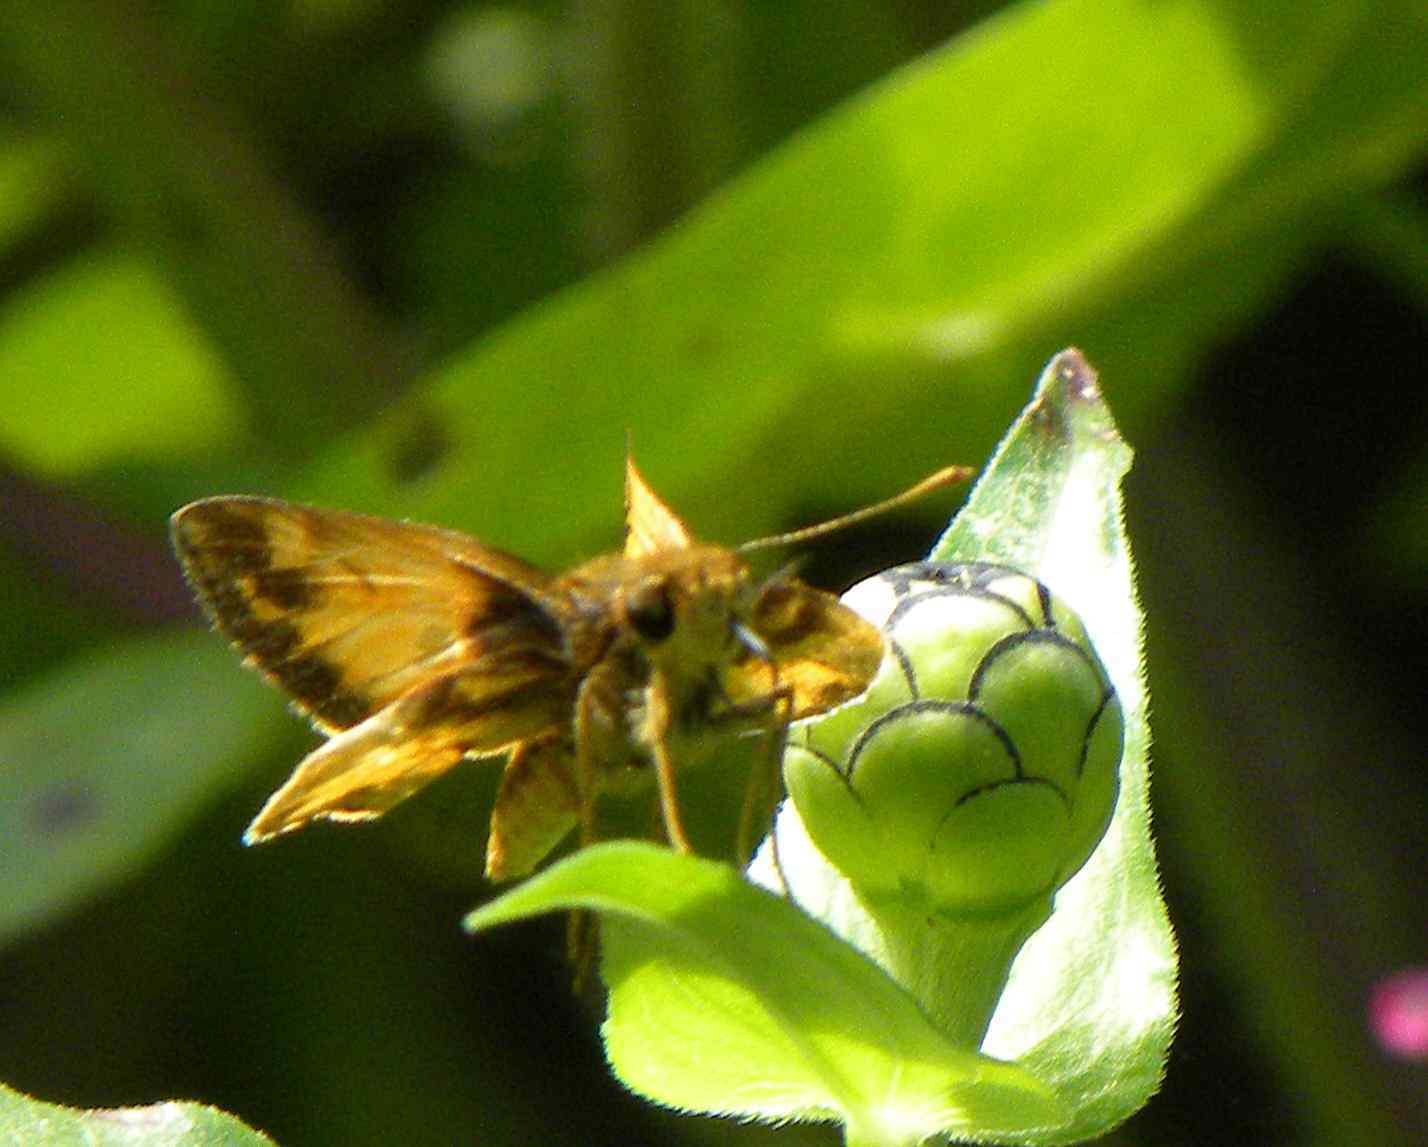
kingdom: Animalia
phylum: Arthropoda
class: Insecta
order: Lepidoptera
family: Hesperiidae
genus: Lon
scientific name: Lon zabulon
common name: Zabulon skipper
